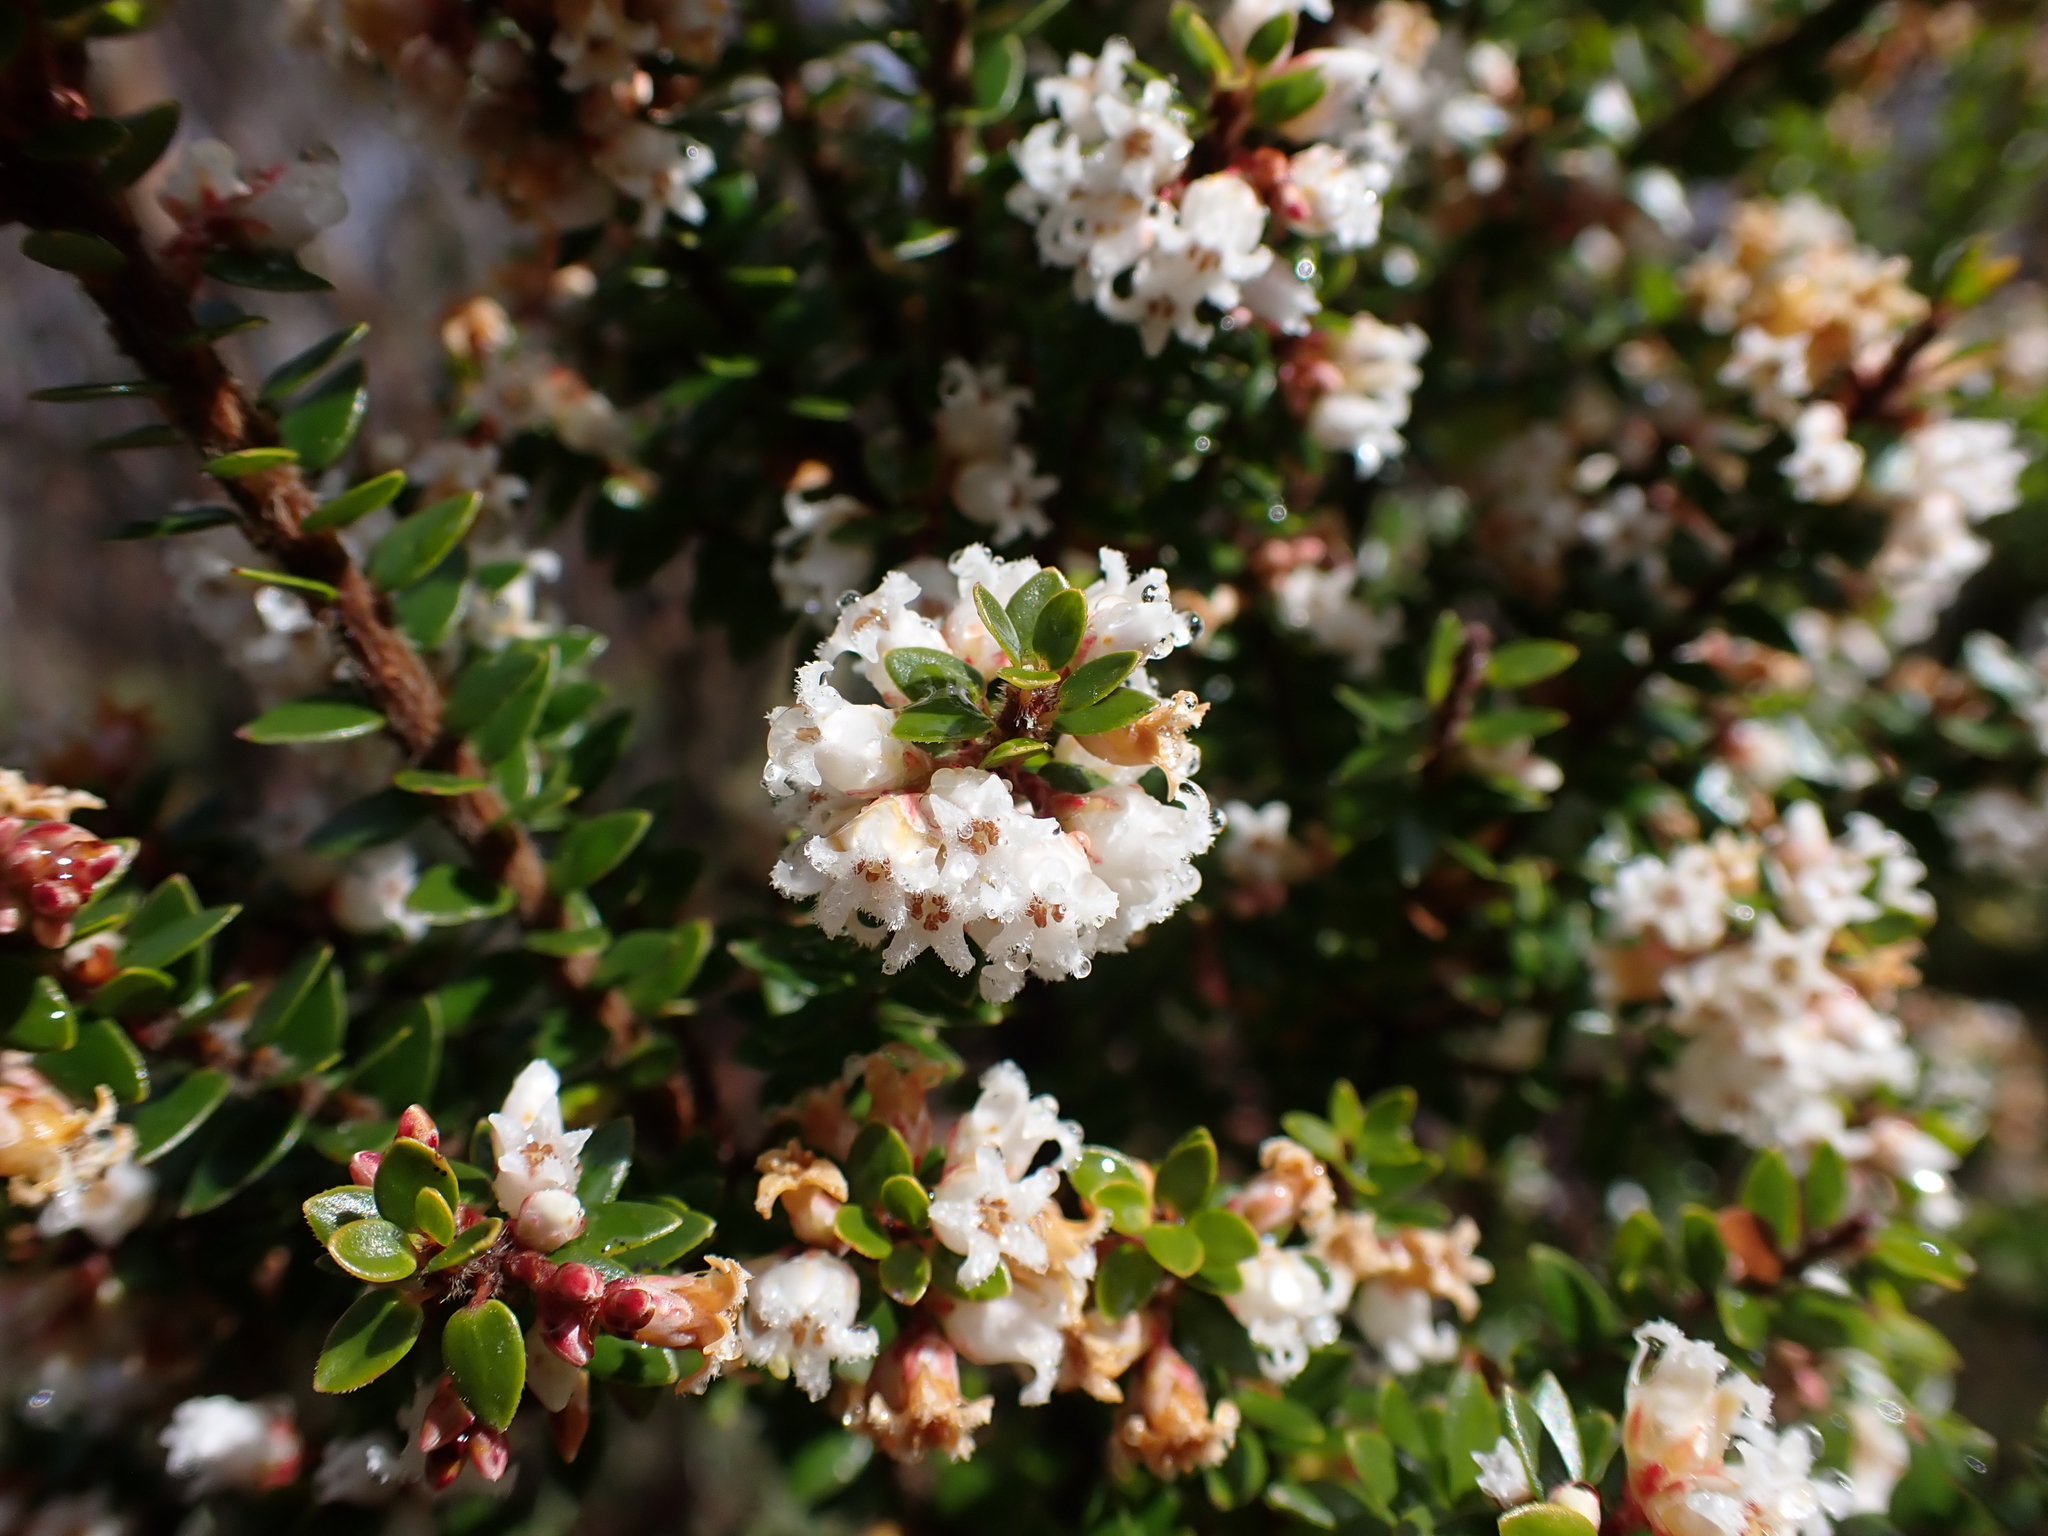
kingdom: Plantae
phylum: Tracheophyta
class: Magnoliopsida
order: Ericales
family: Ericaceae
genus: Acrothamnus
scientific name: Acrothamnus maccraei
